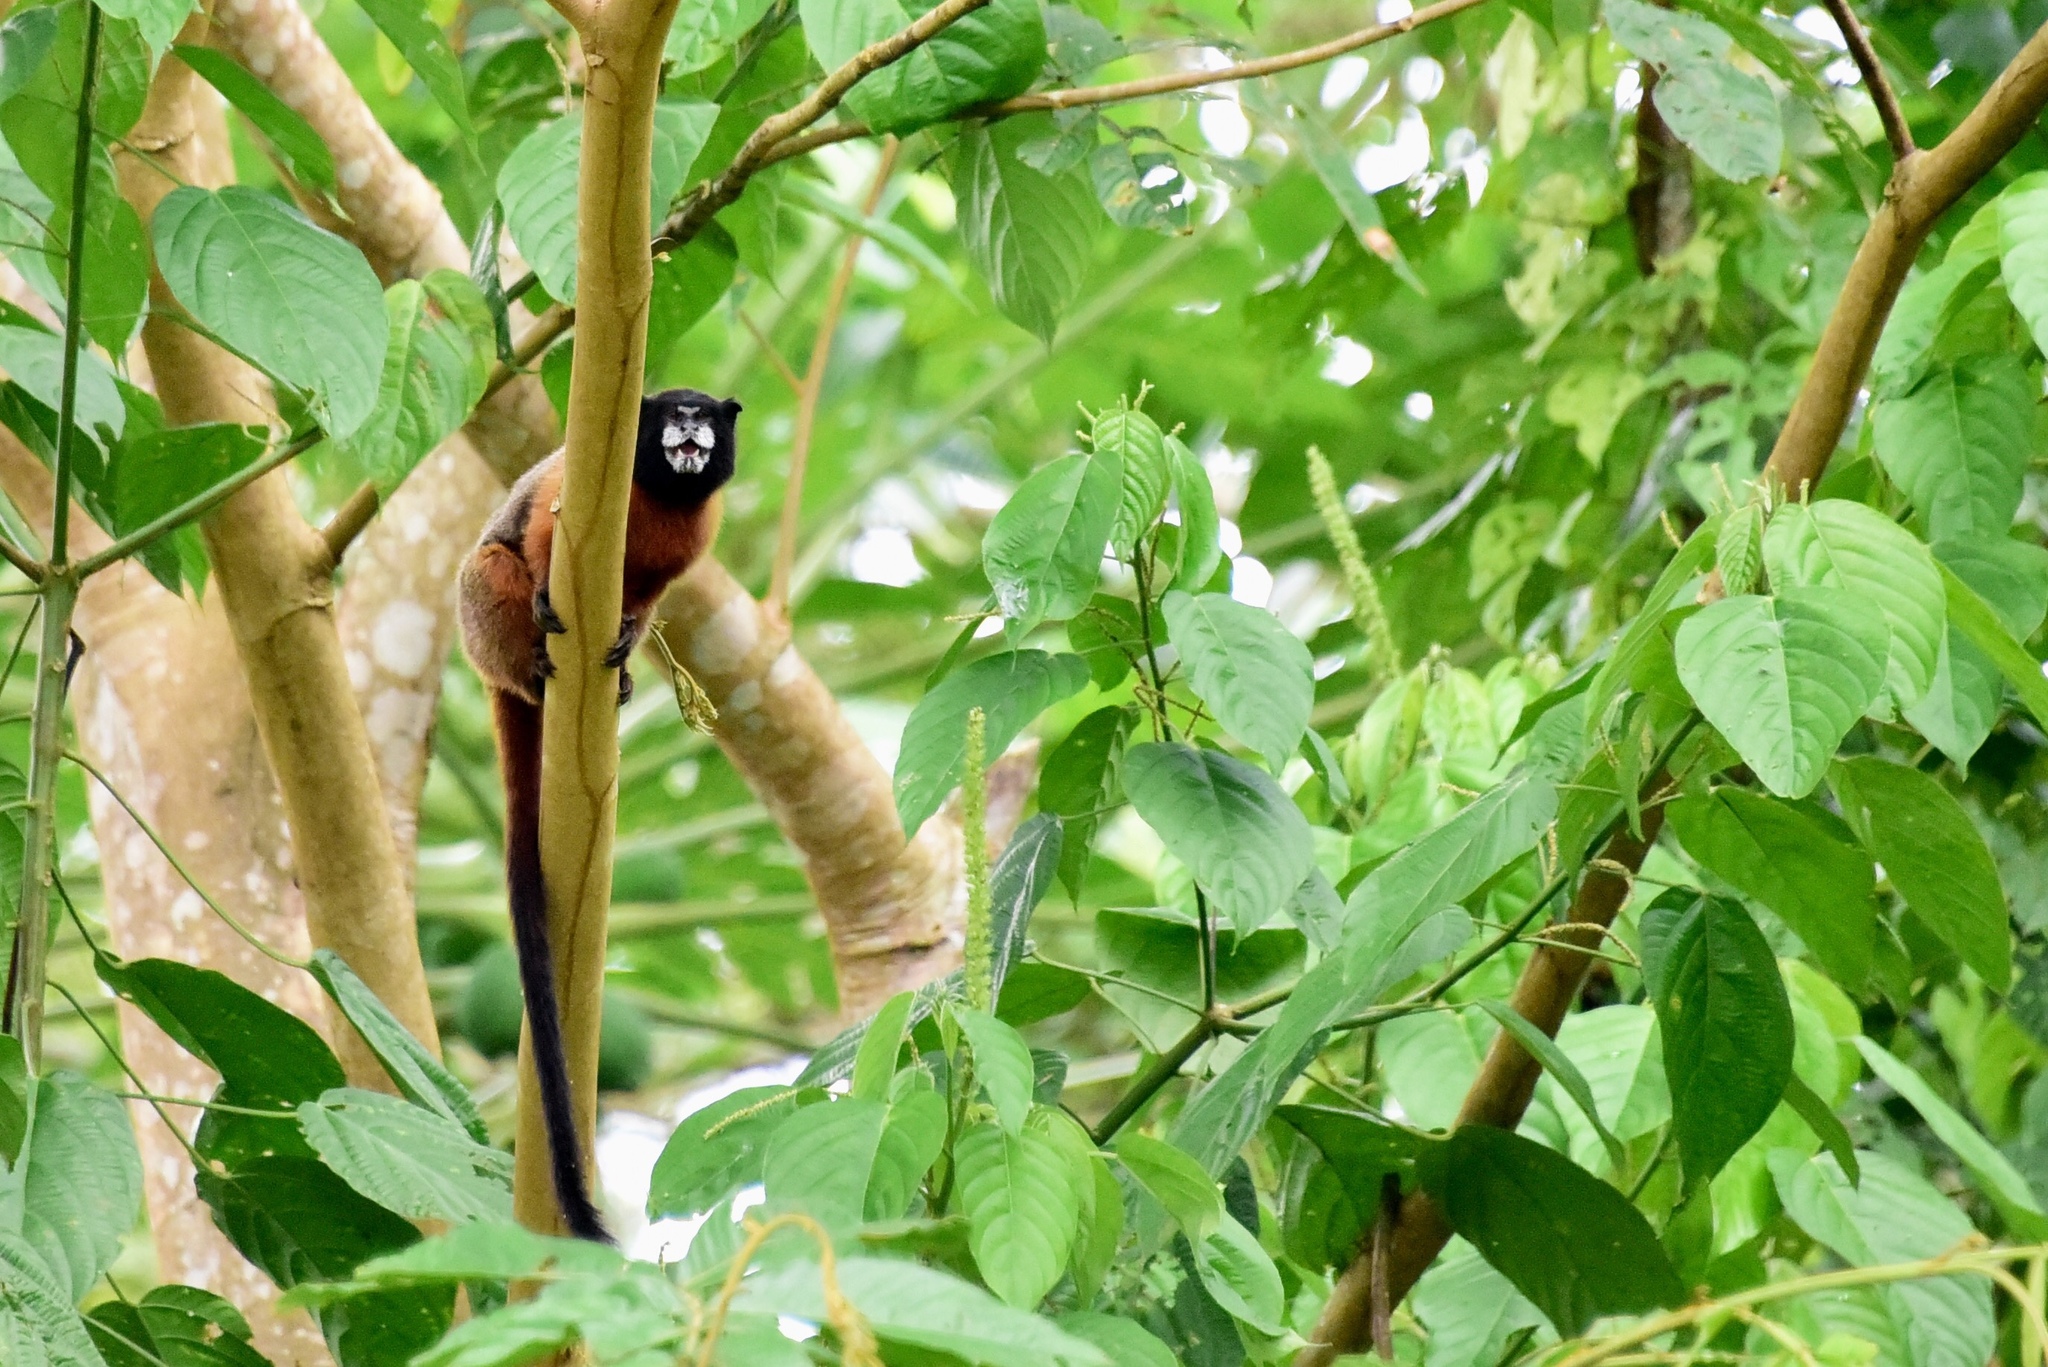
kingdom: Animalia
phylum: Chordata
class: Mammalia
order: Primates
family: Callitrichidae
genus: Leontocebus
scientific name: Leontocebus tripartitus
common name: Golden-mantled saddle-back tamarin
